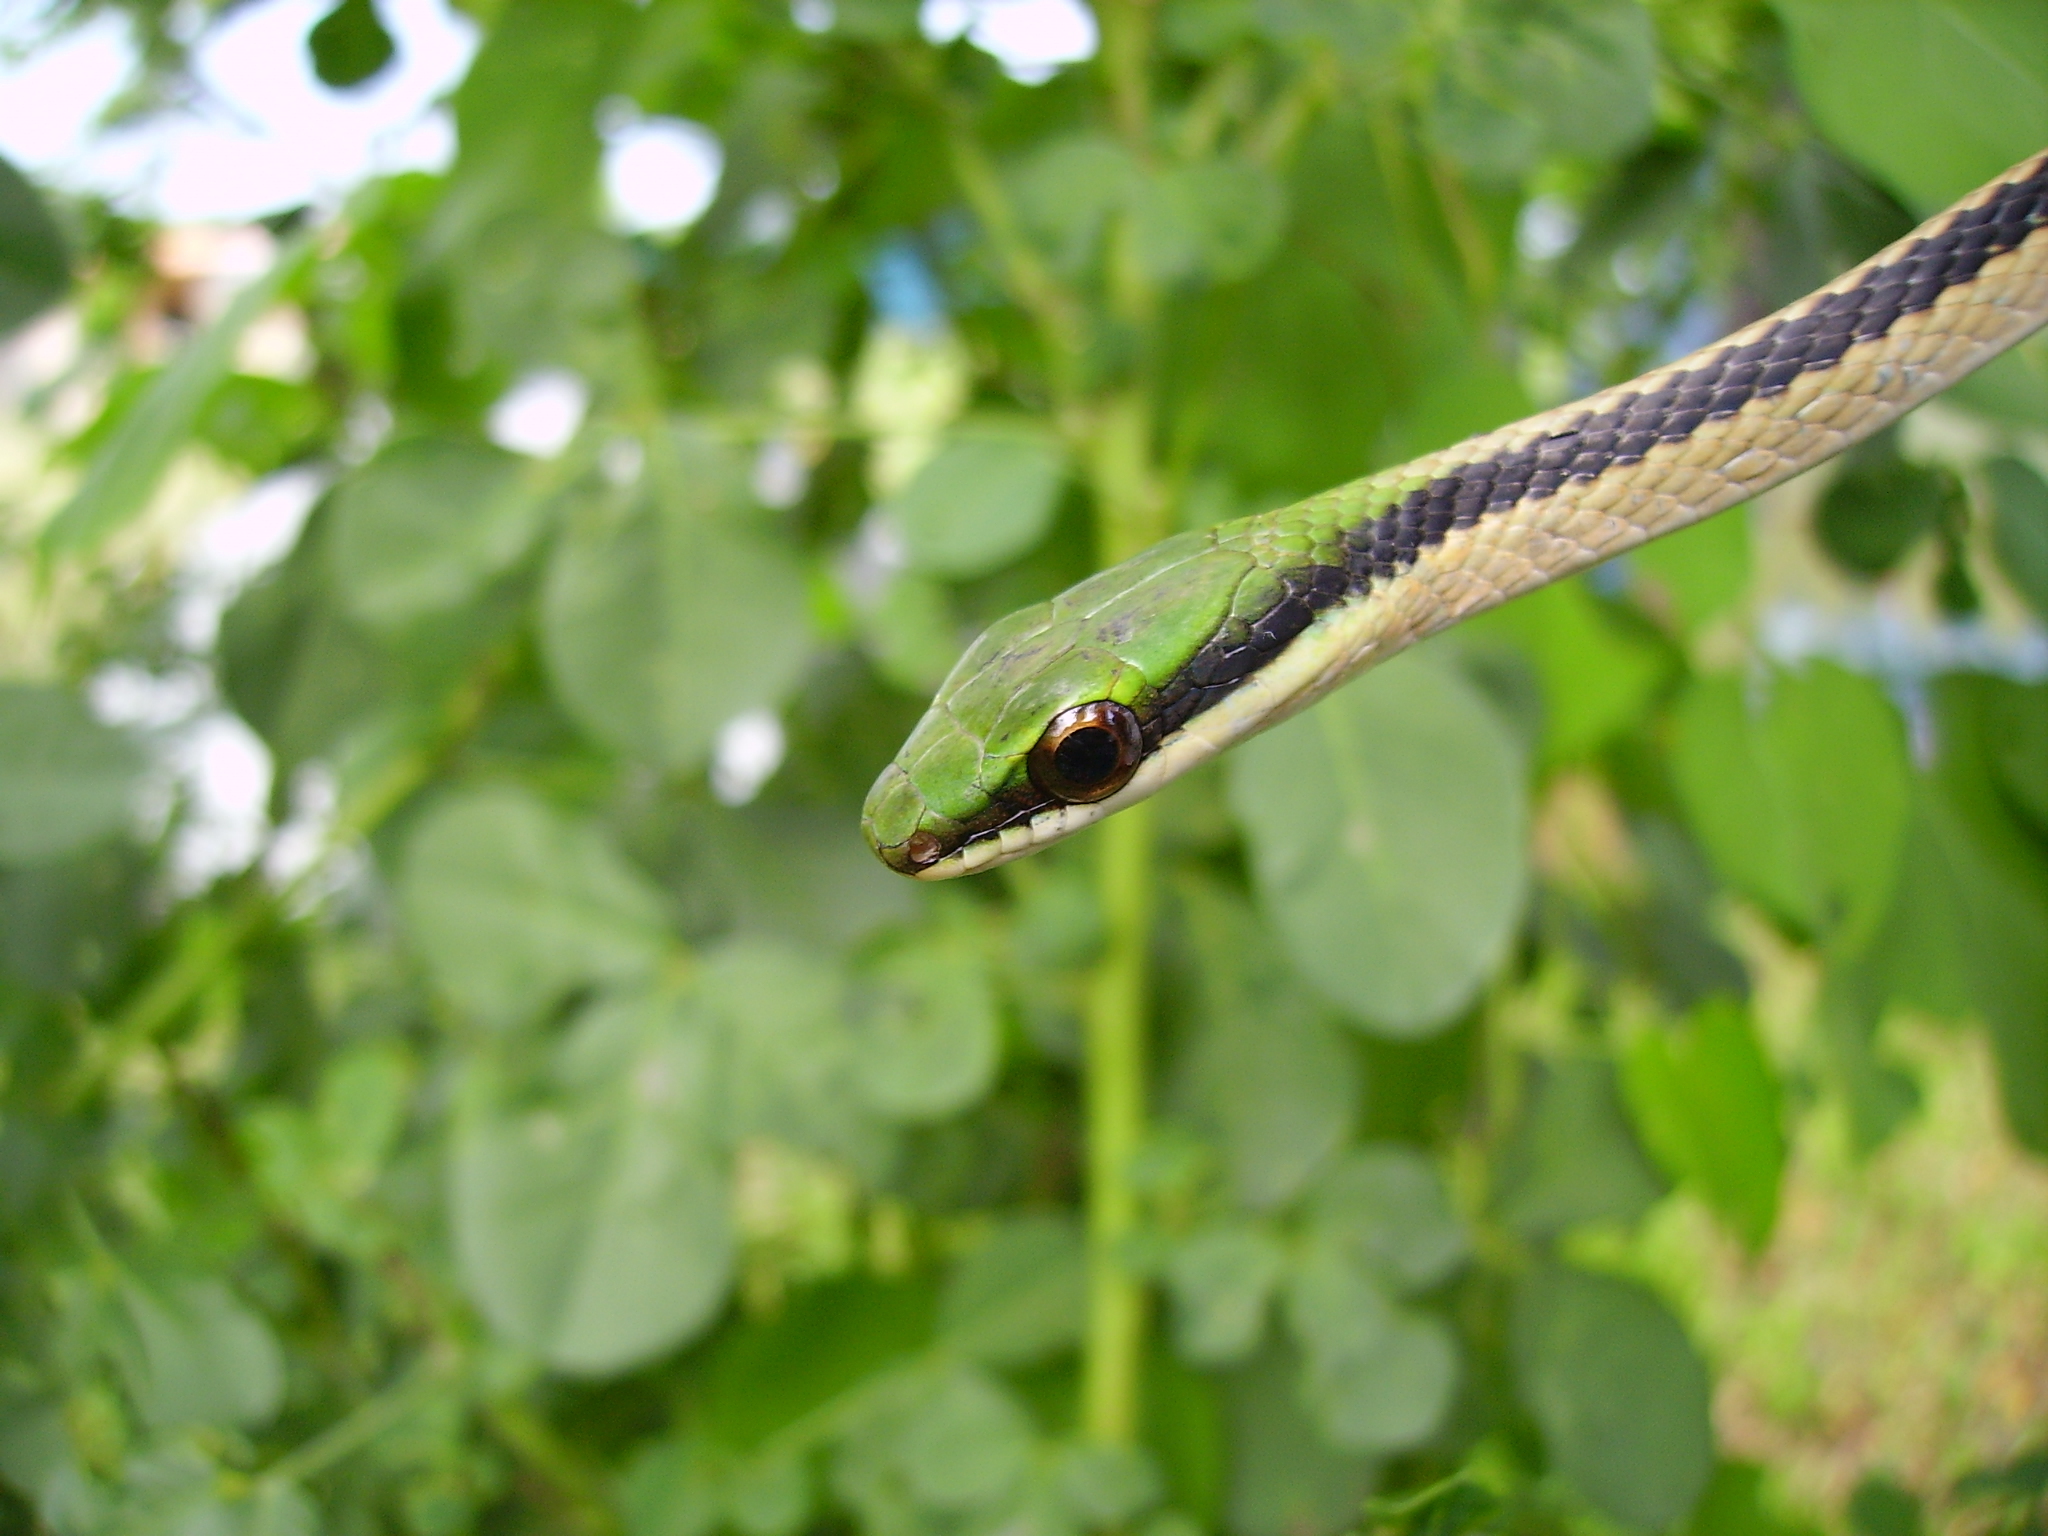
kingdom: Animalia
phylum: Chordata
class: Squamata
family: Colubridae
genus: Leptophis
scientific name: Leptophis mexicanus
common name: Mexican parrot snake
